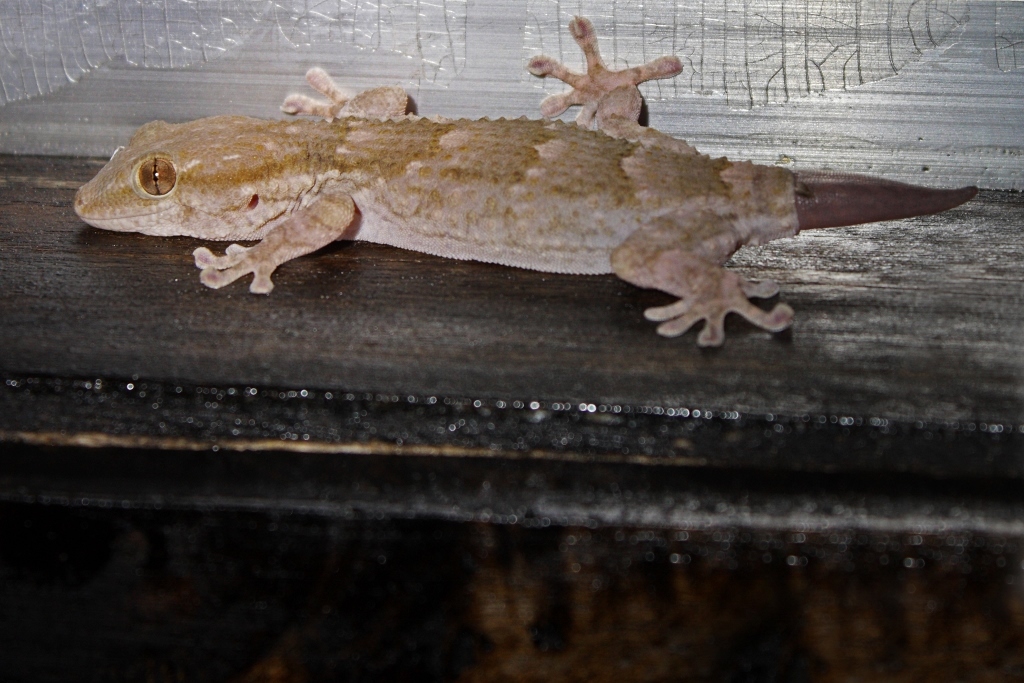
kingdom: Animalia
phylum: Chordata
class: Squamata
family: Phyllodactylidae
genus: Tarentola
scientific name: Tarentola senegambiae
